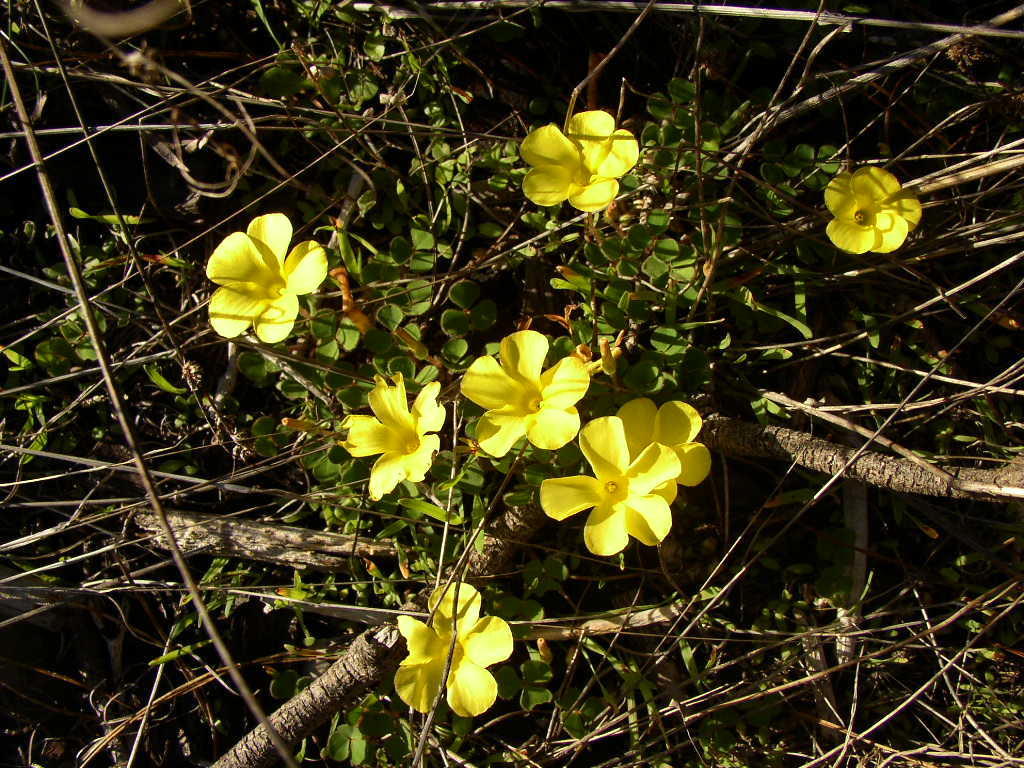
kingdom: Plantae
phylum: Tracheophyta
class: Magnoliopsida
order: Oxalidales
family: Oxalidaceae
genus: Oxalis
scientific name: Oxalis luteola
